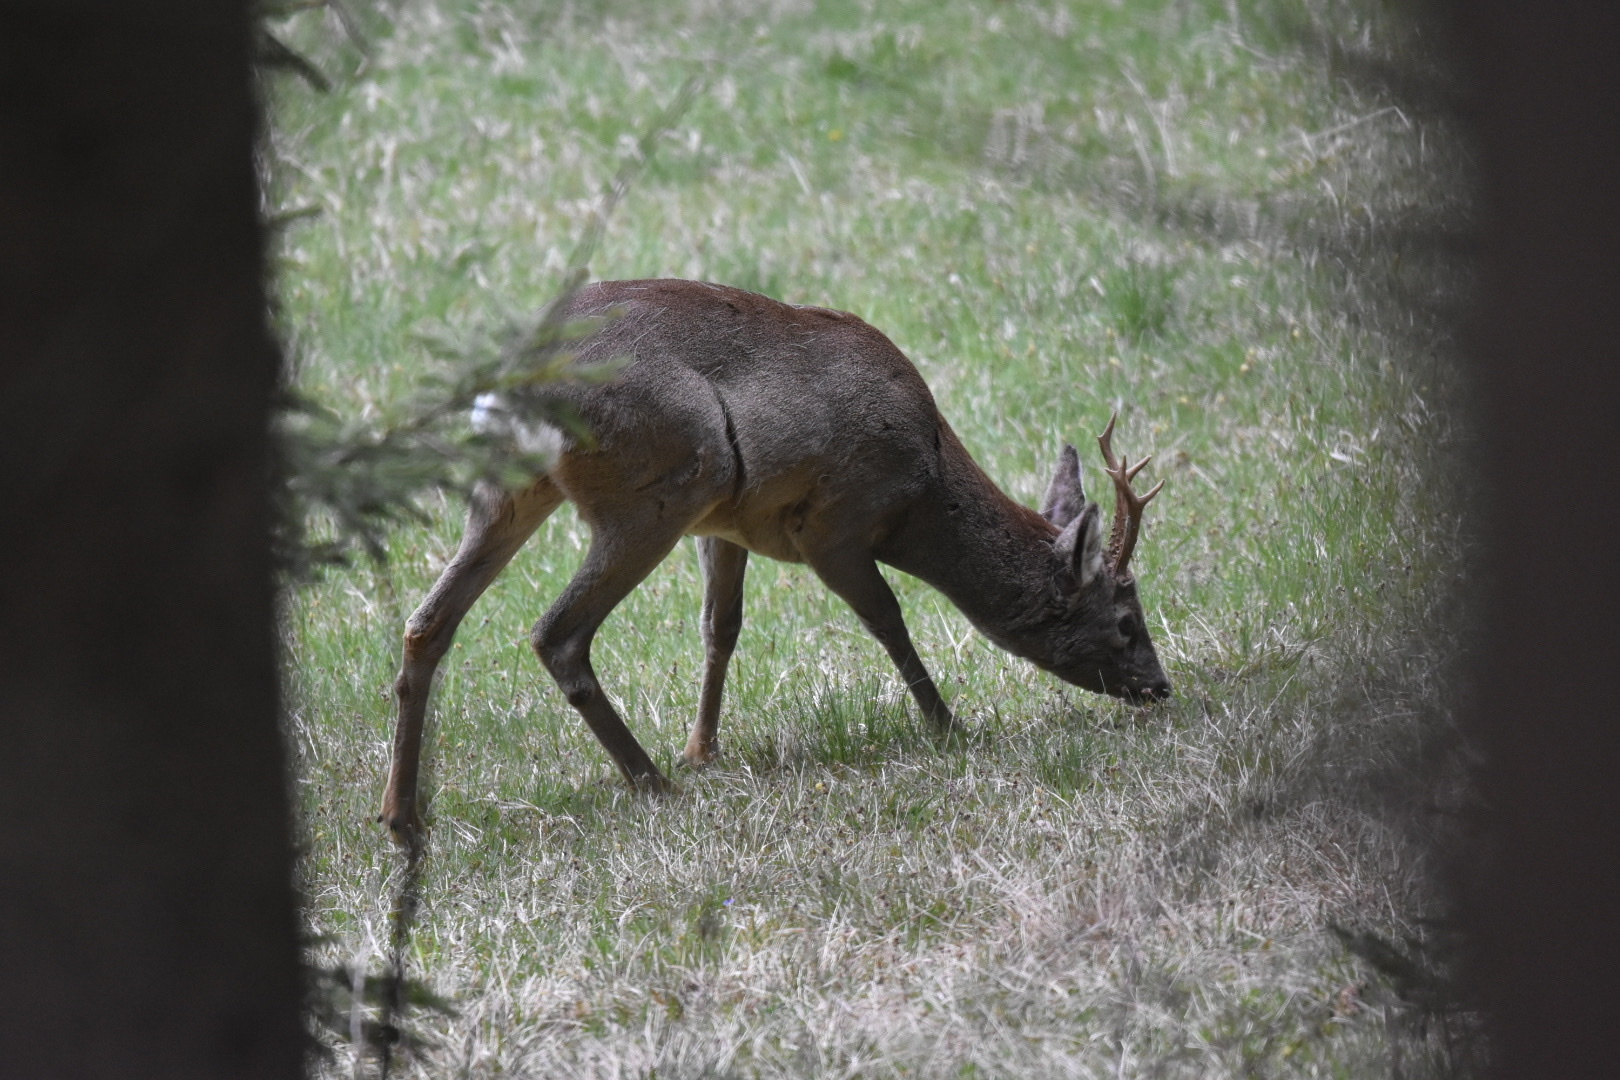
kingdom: Animalia
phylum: Chordata
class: Mammalia
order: Artiodactyla
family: Cervidae
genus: Capreolus
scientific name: Capreolus capreolus
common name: Western roe deer
